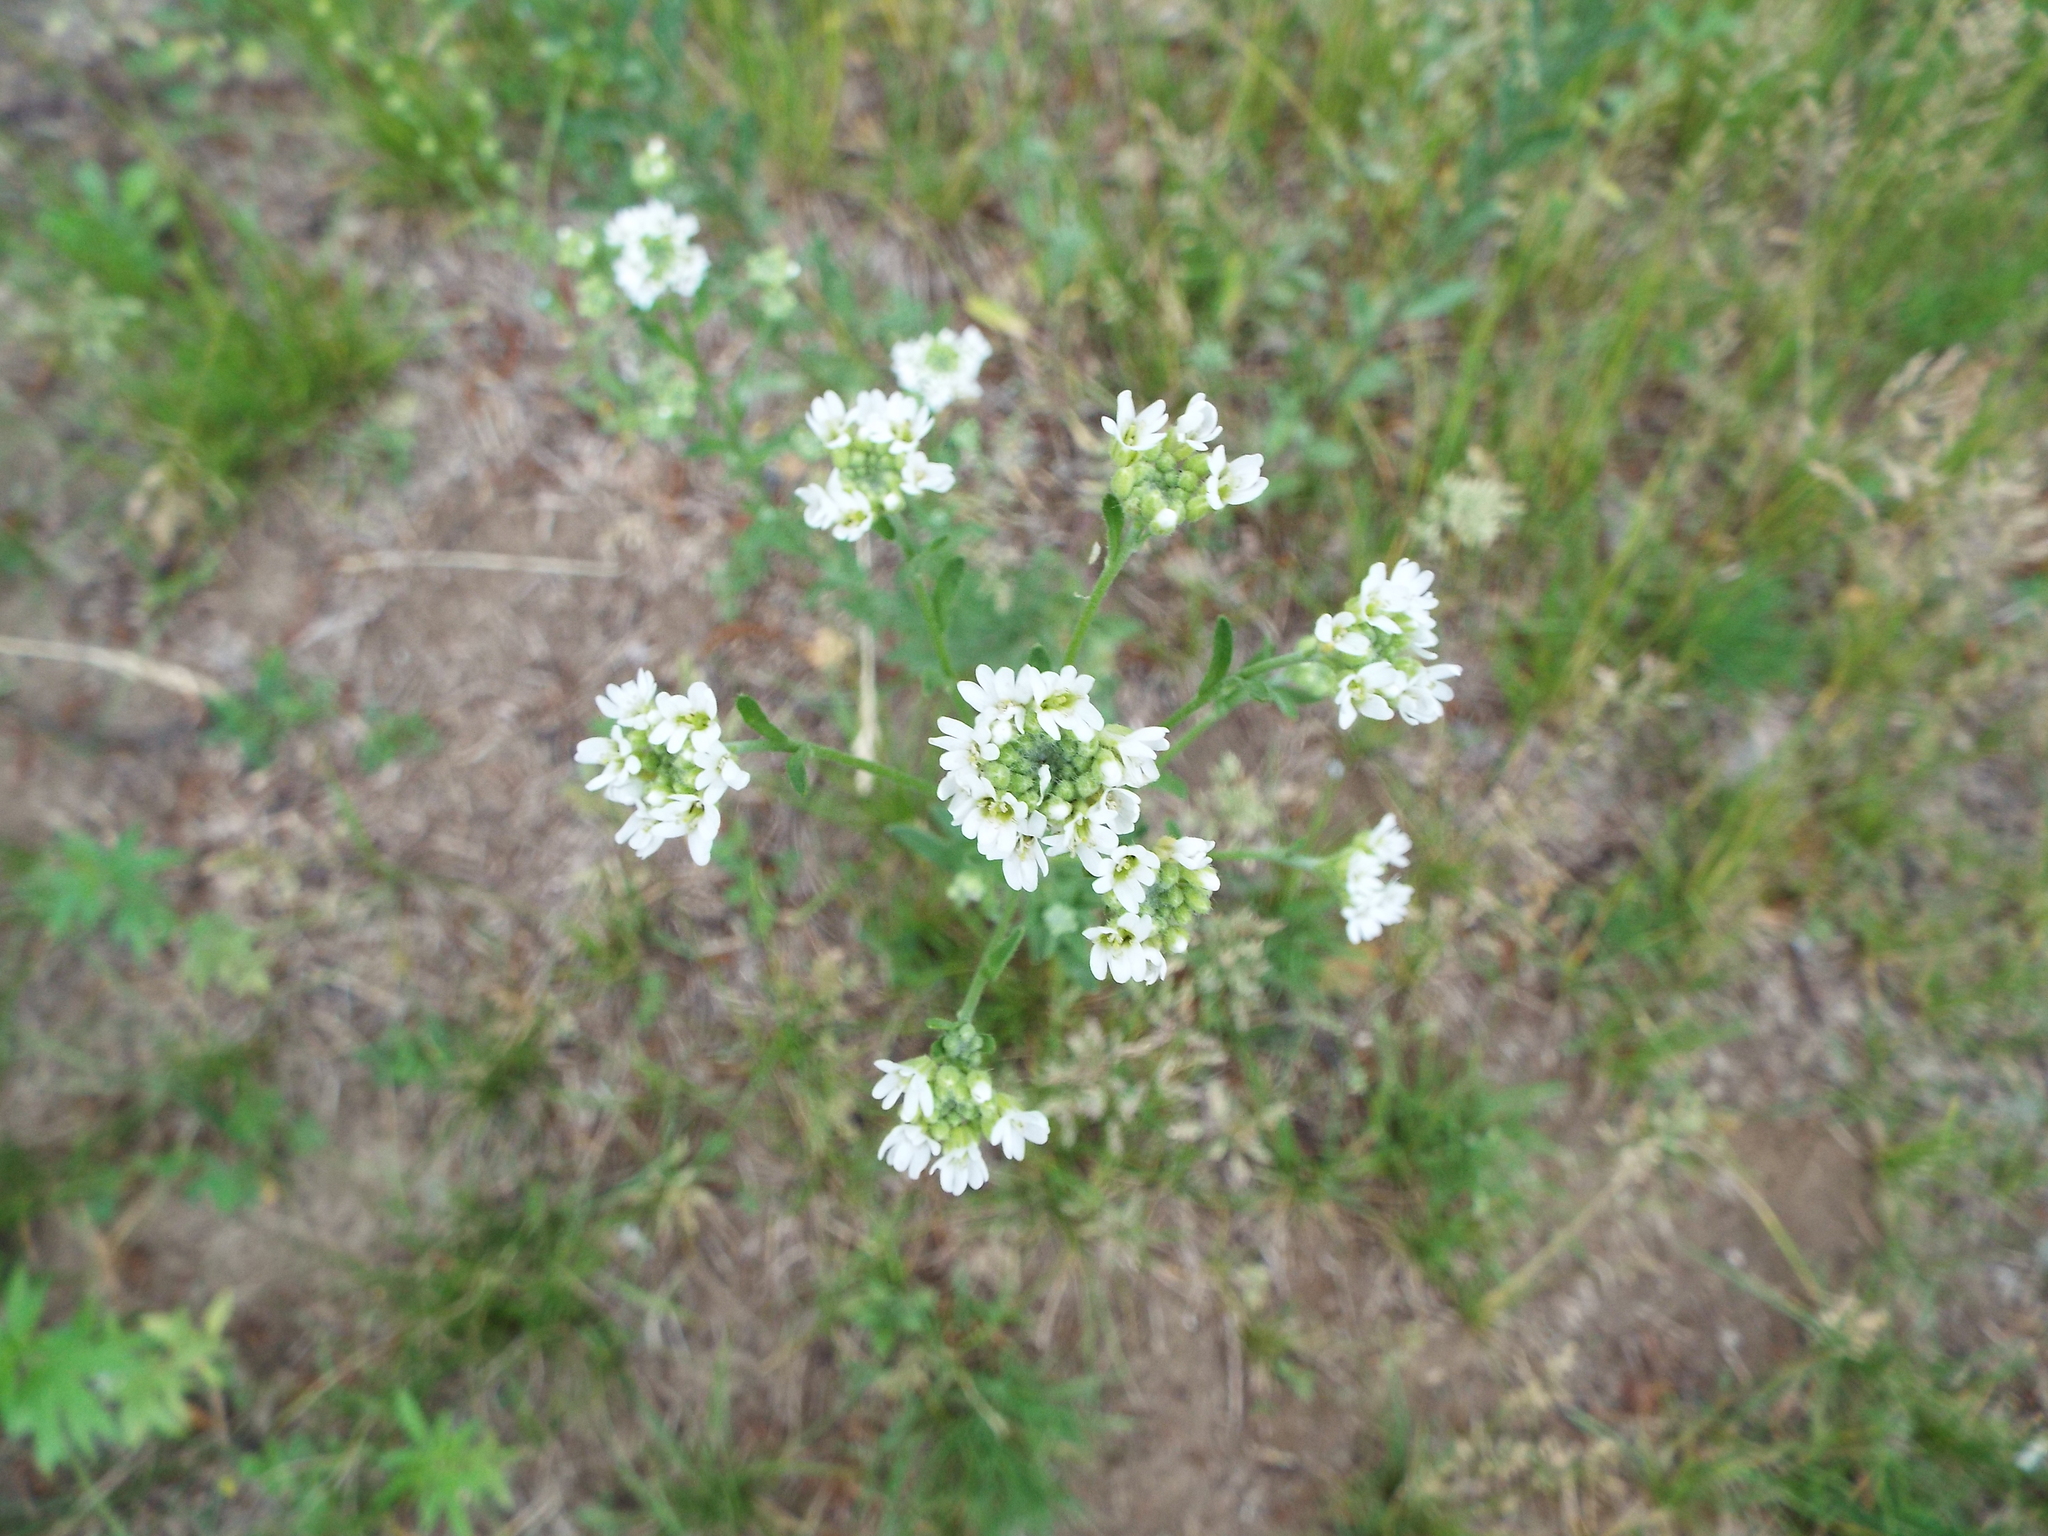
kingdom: Plantae
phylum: Tracheophyta
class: Magnoliopsida
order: Brassicales
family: Brassicaceae
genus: Berteroa
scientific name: Berteroa incana
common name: Hoary alison
